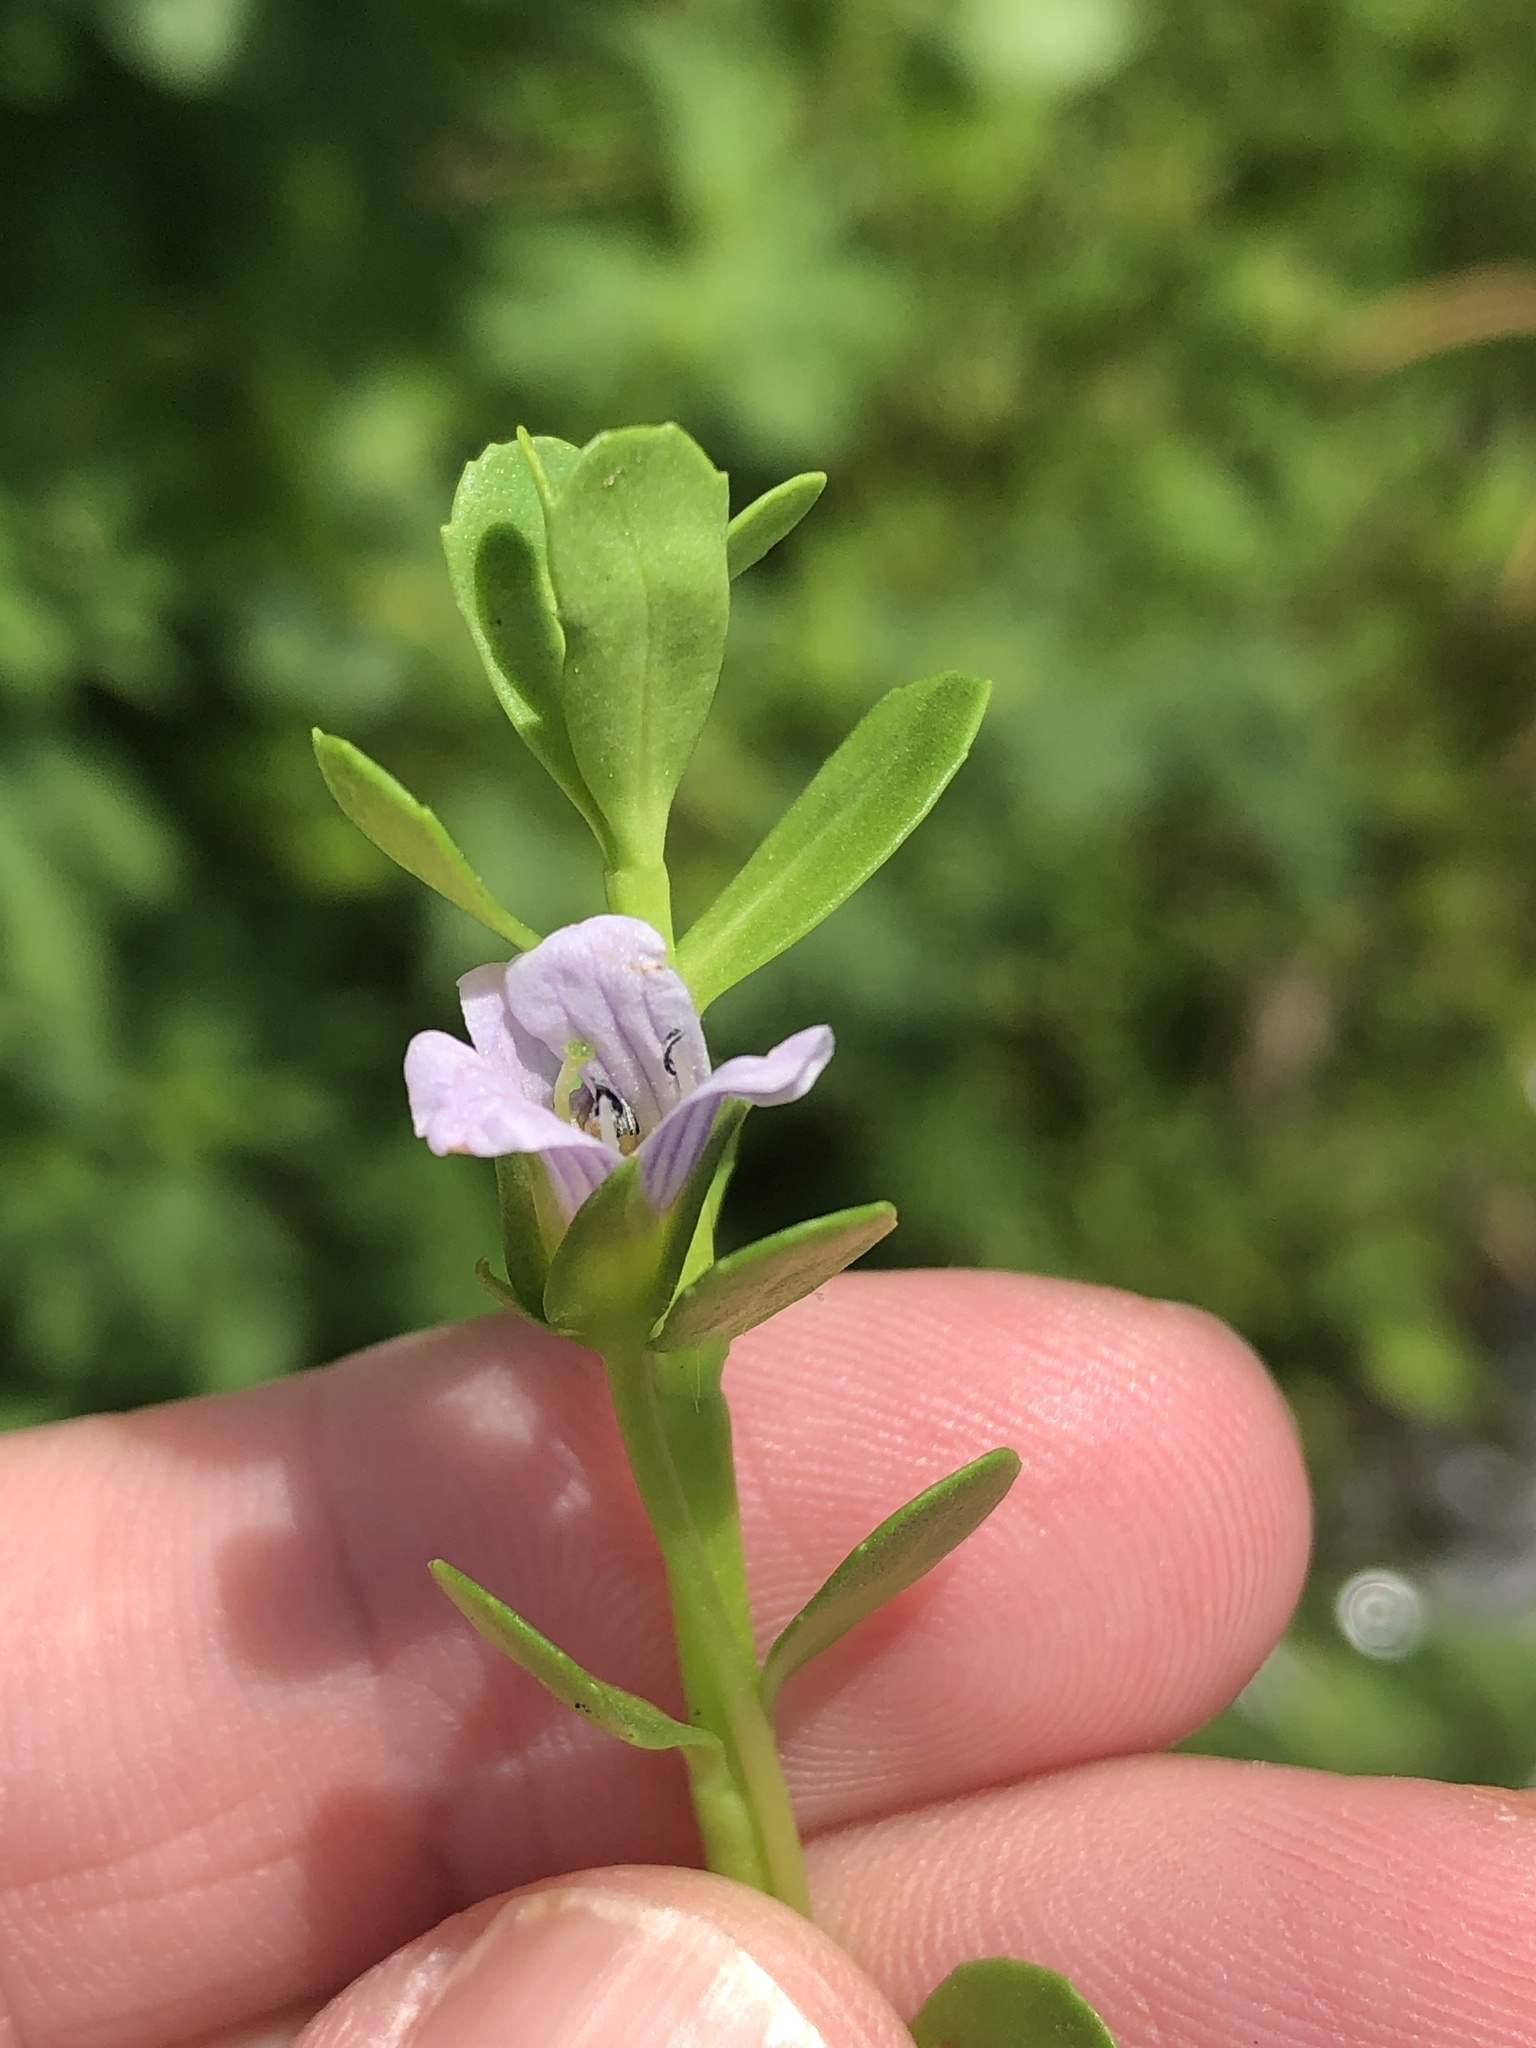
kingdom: Plantae
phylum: Tracheophyta
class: Magnoliopsida
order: Lamiales
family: Plantaginaceae
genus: Bacopa
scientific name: Bacopa monnieri
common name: Indian-pennywort
